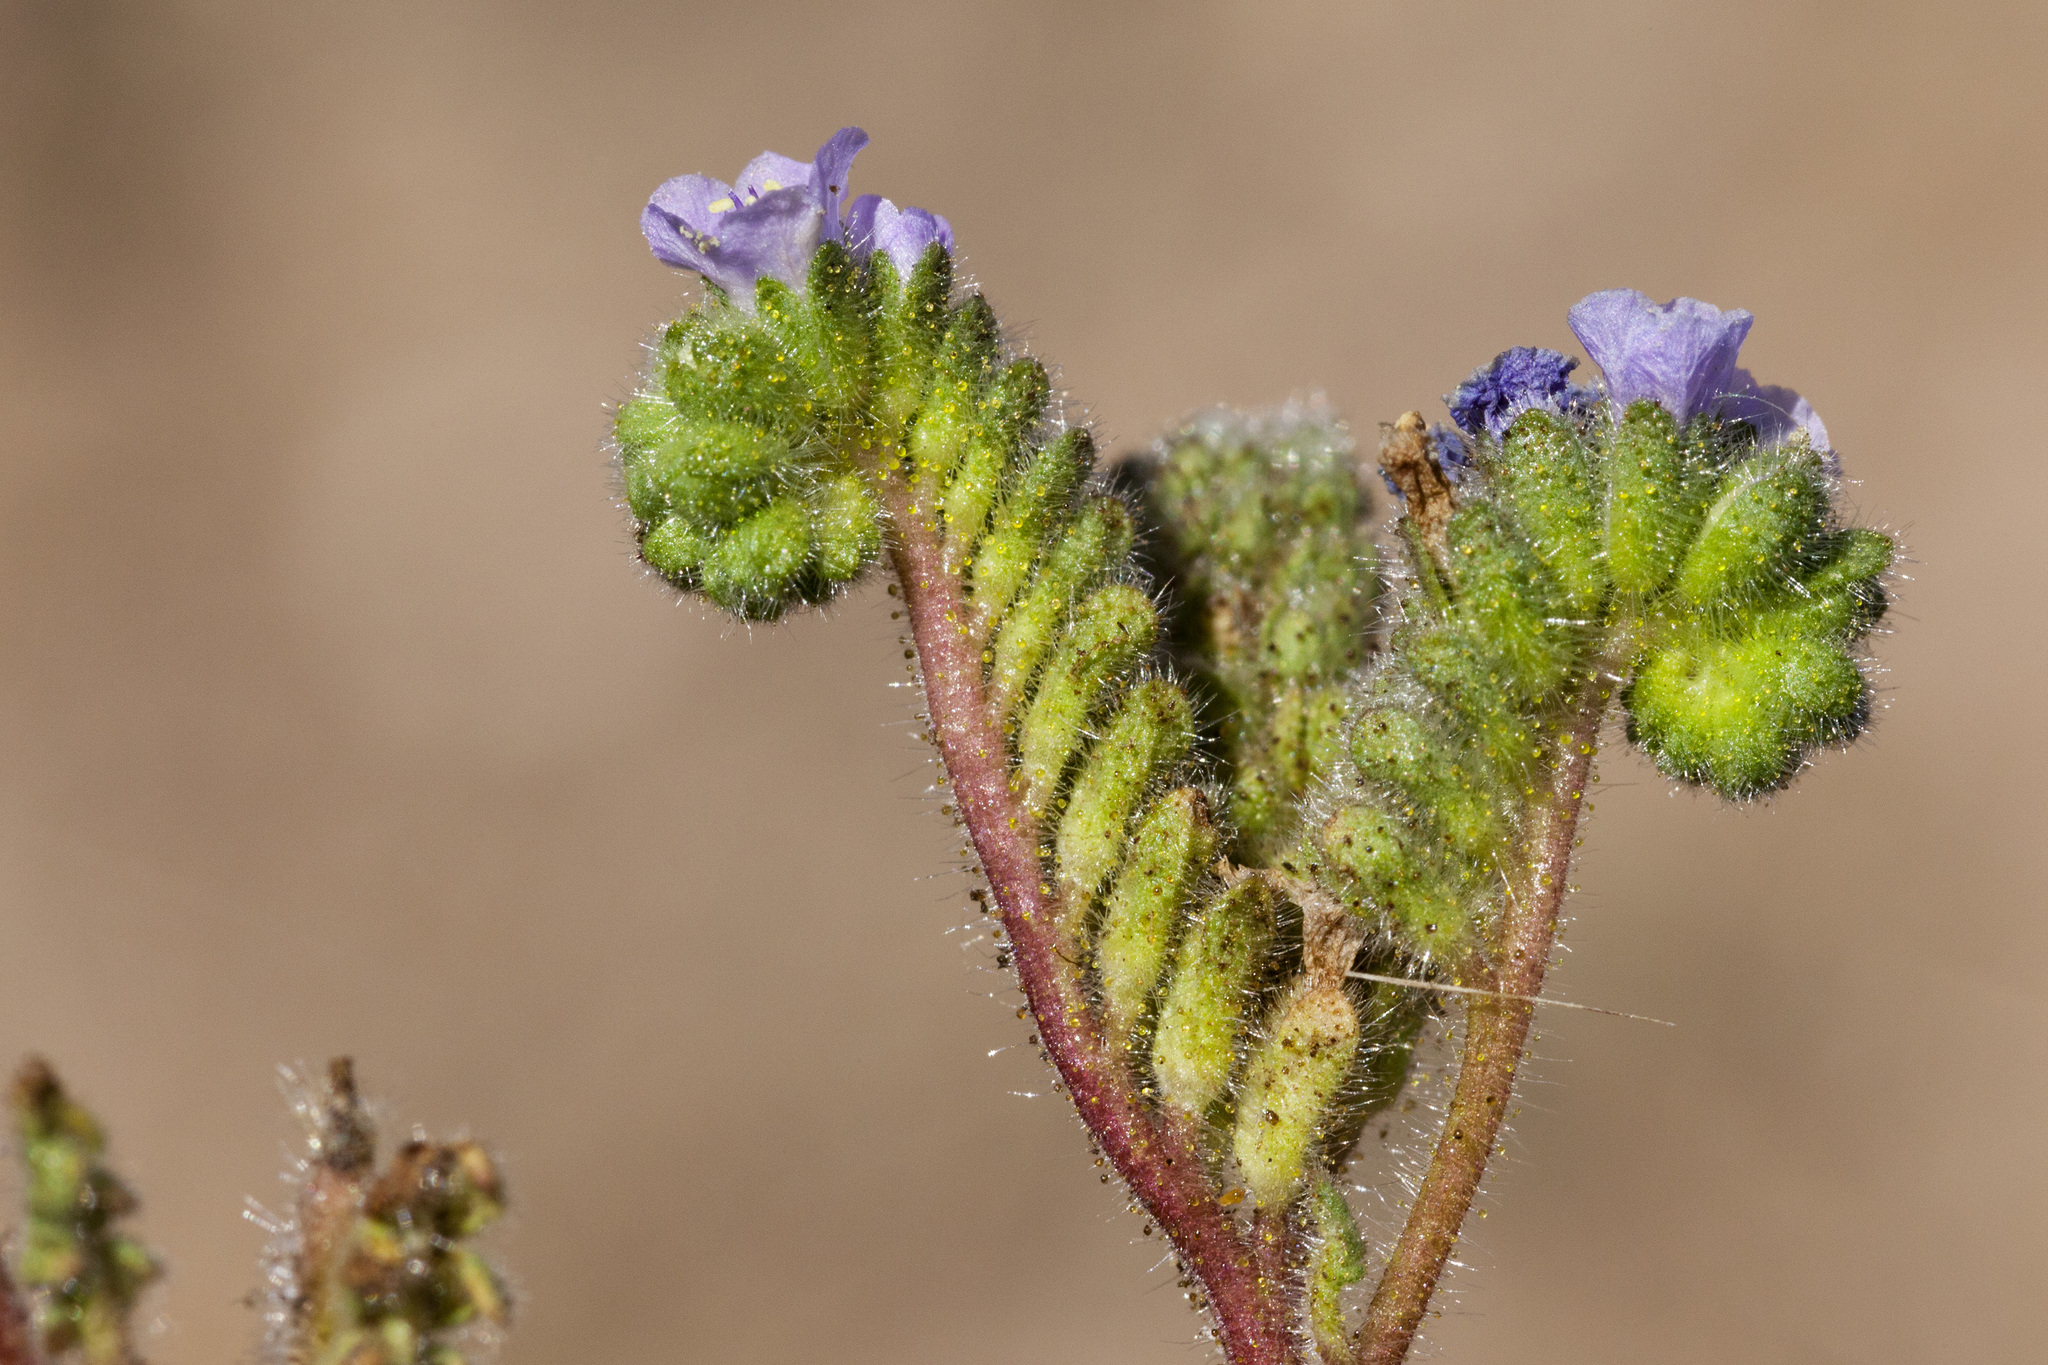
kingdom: Plantae
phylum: Tracheophyta
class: Magnoliopsida
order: Boraginales
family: Hydrophyllaceae
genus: Phacelia
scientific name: Phacelia coerulea
